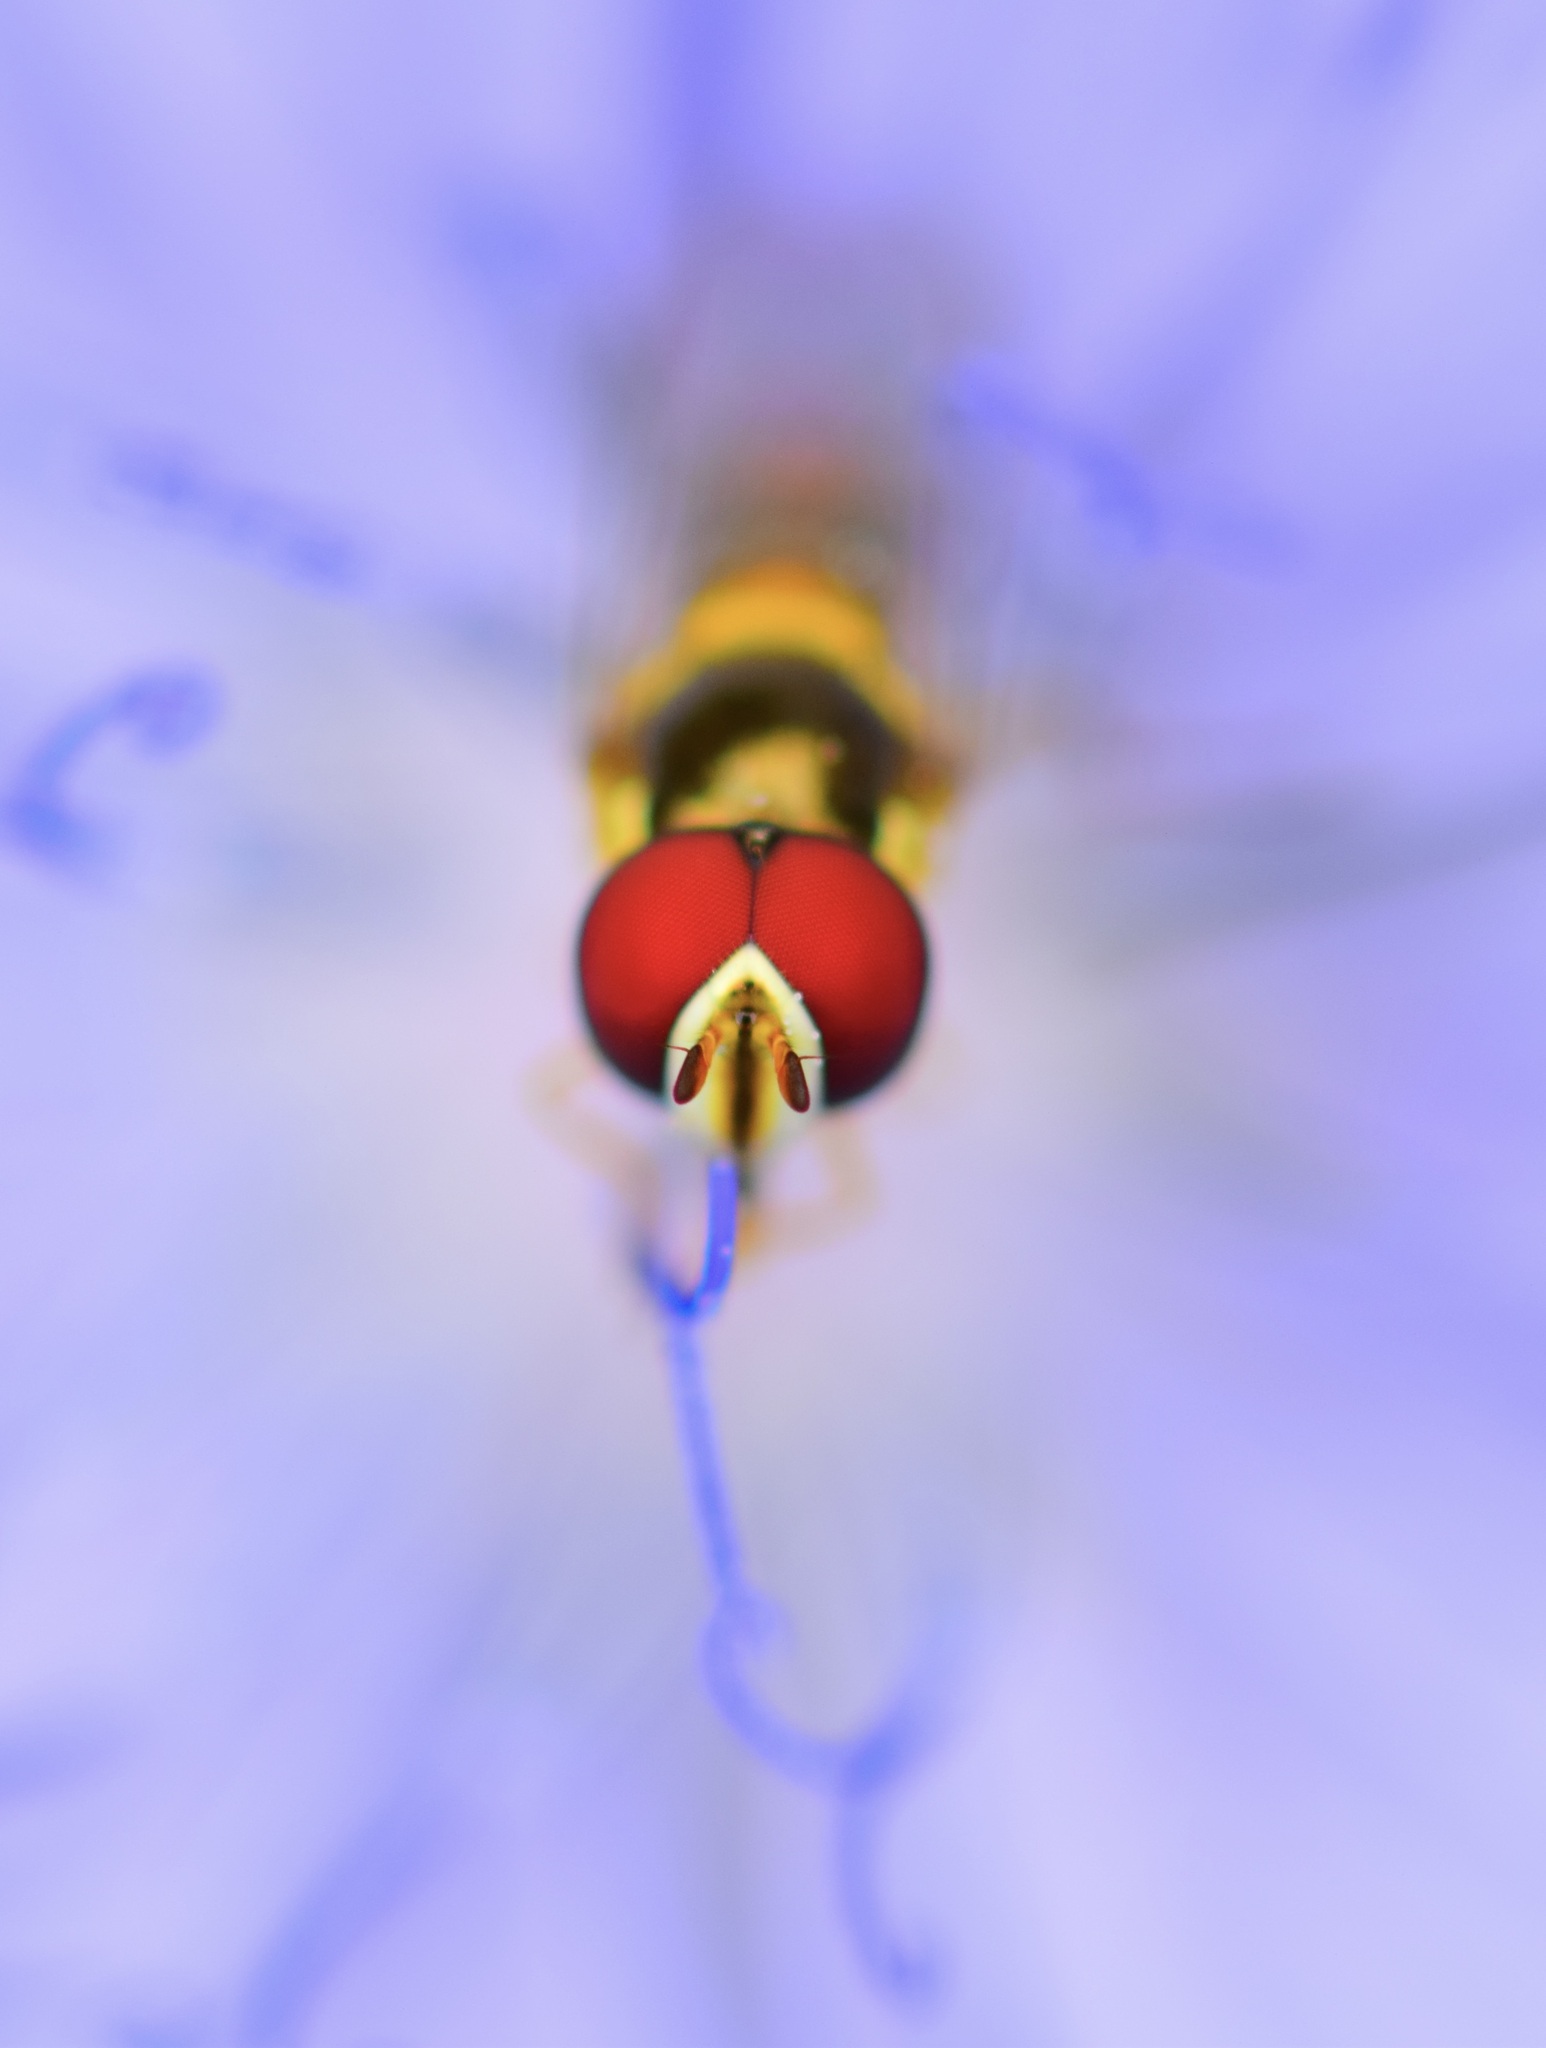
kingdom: Animalia
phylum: Arthropoda
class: Insecta
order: Diptera
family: Syrphidae
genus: Allograpta
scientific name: Allograpta obliqua
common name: Common oblique syrphid
